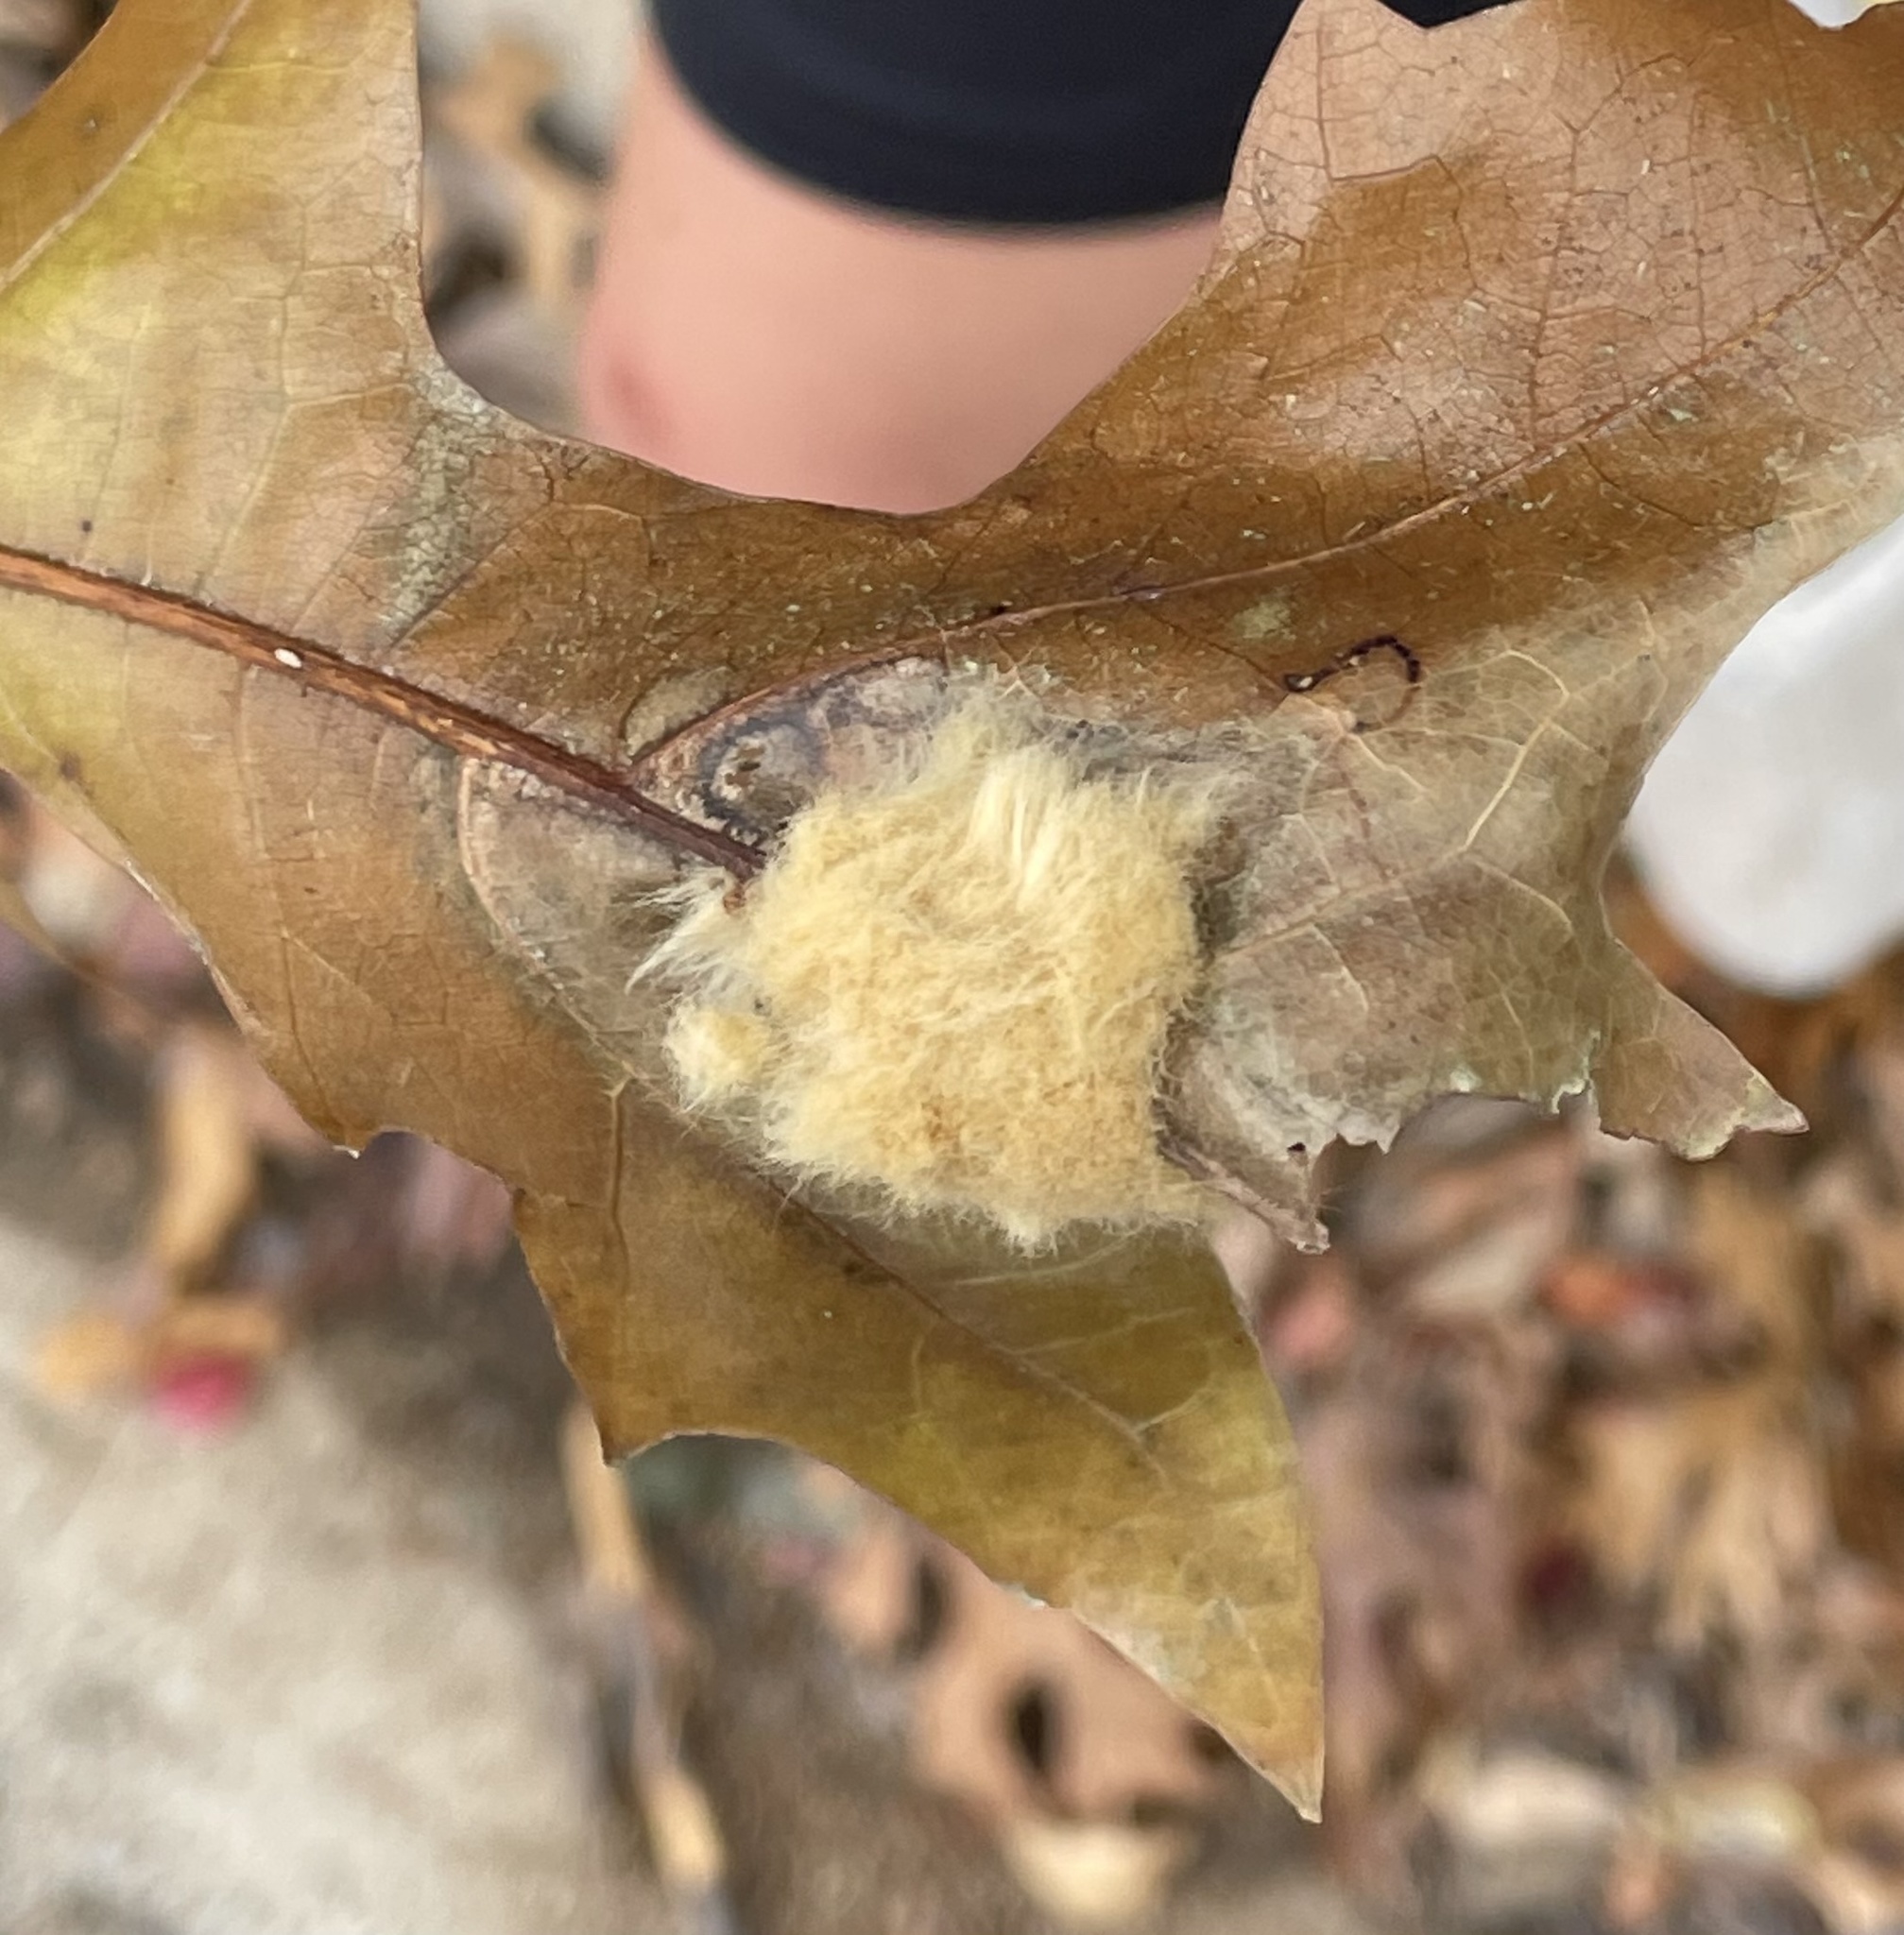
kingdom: Animalia
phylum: Arthropoda
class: Insecta
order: Hymenoptera
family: Cynipidae
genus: Callirhytis
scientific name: Callirhytis
